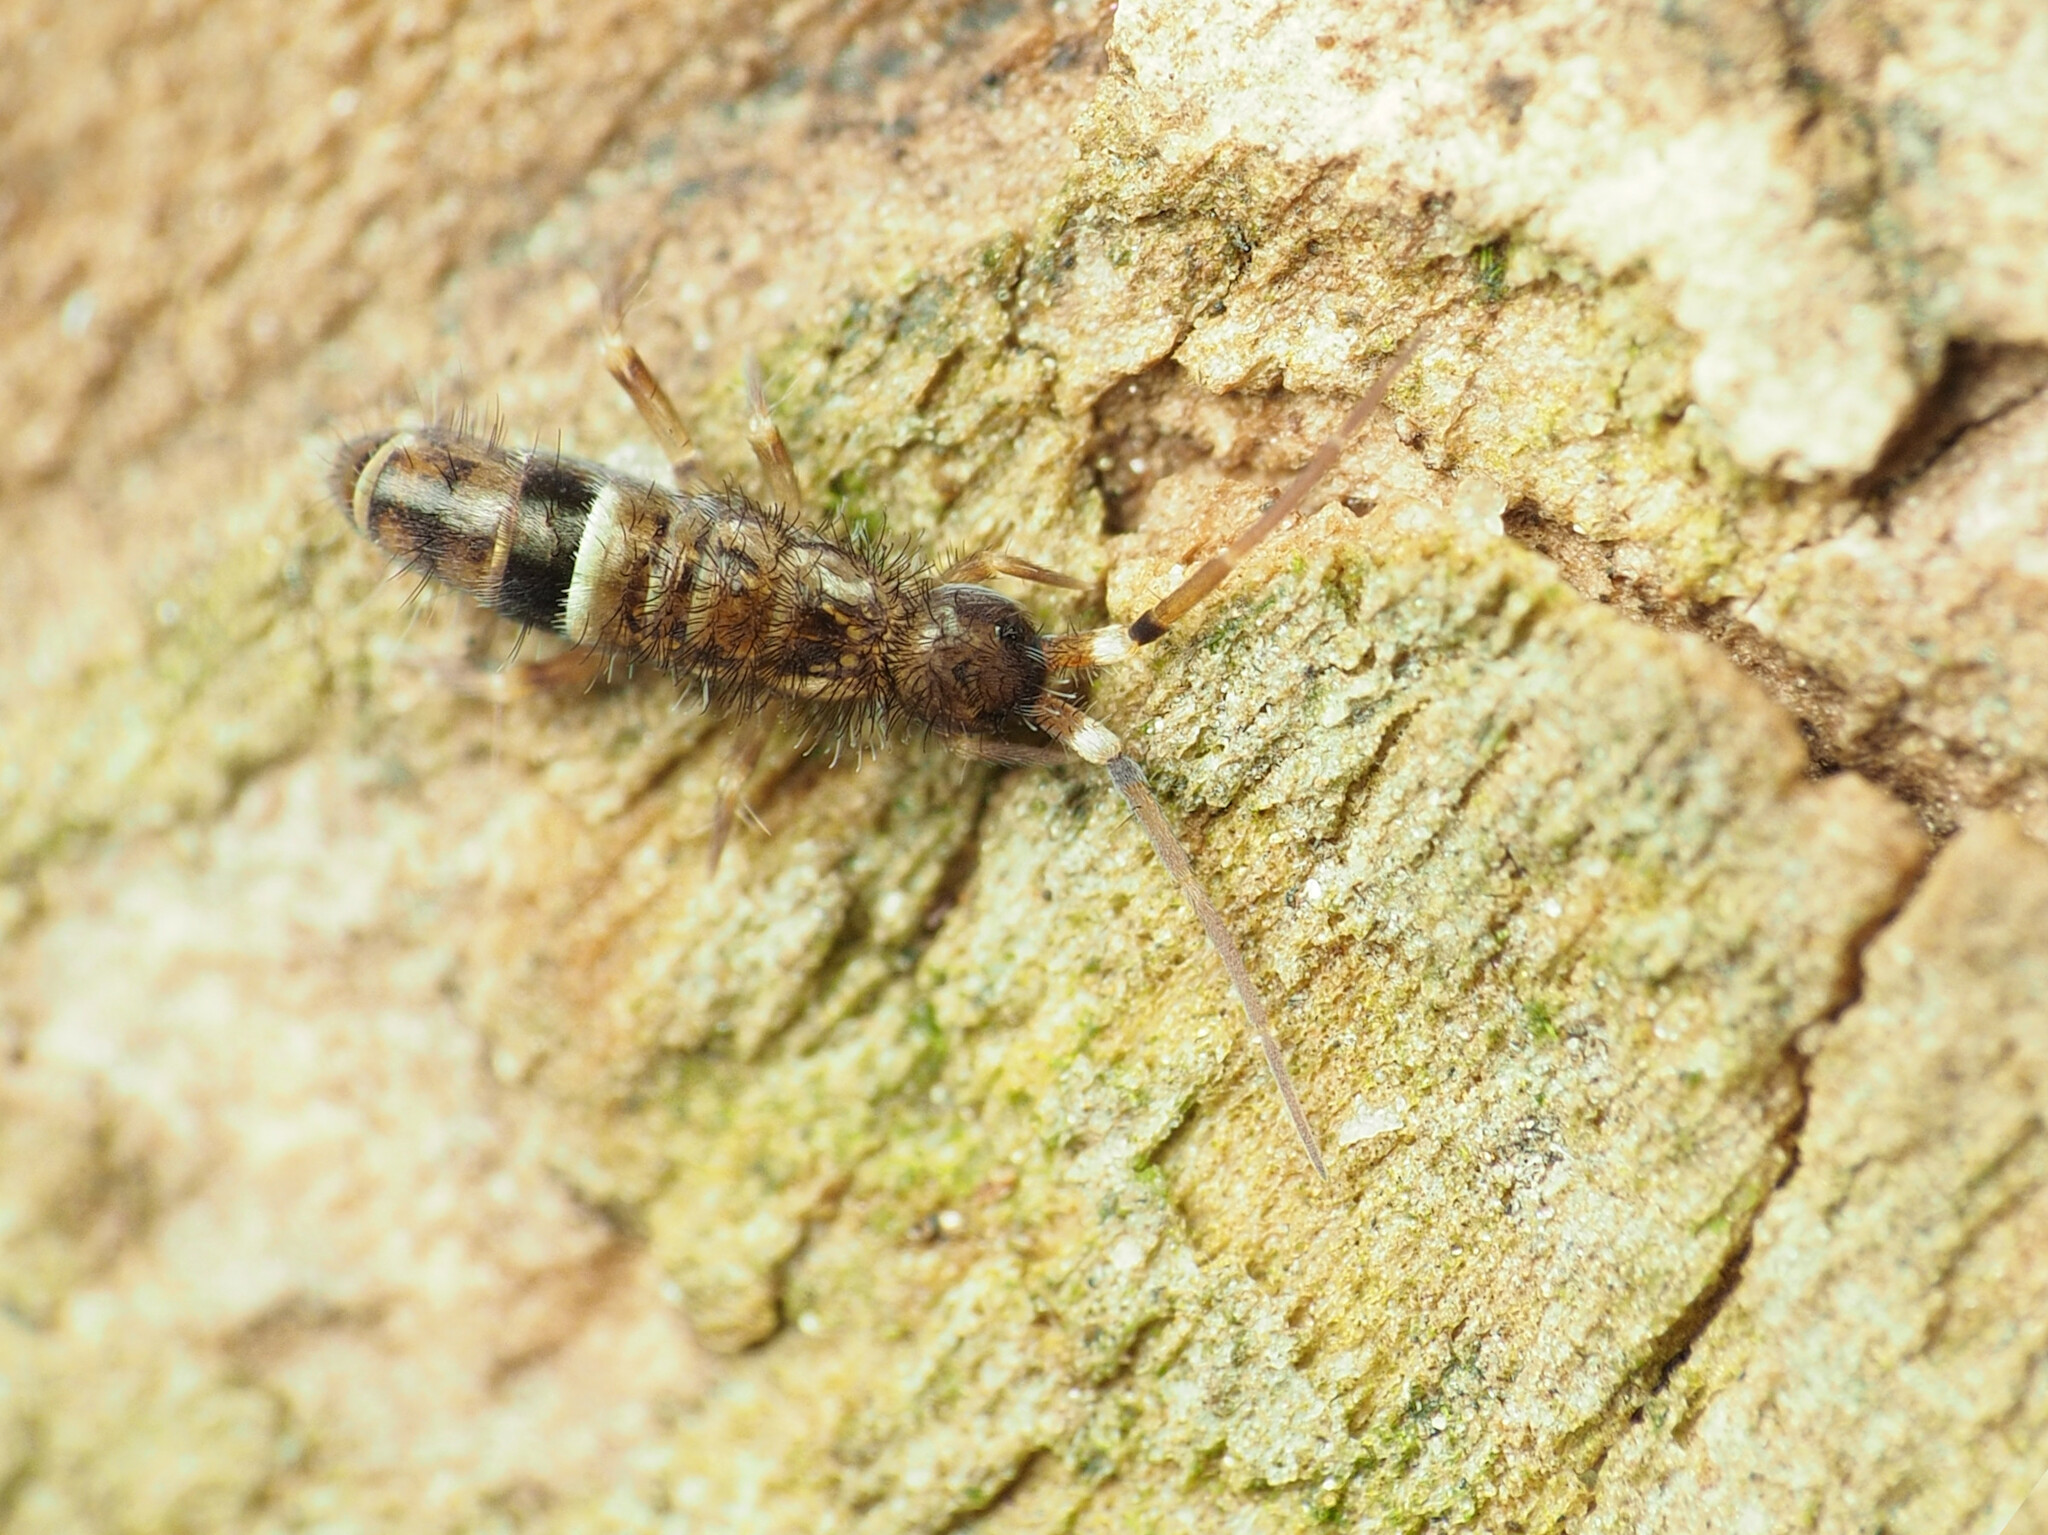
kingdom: Animalia
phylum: Arthropoda
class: Collembola
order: Entomobryomorpha
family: Orchesellidae
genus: Orchesella
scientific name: Orchesella cincta
